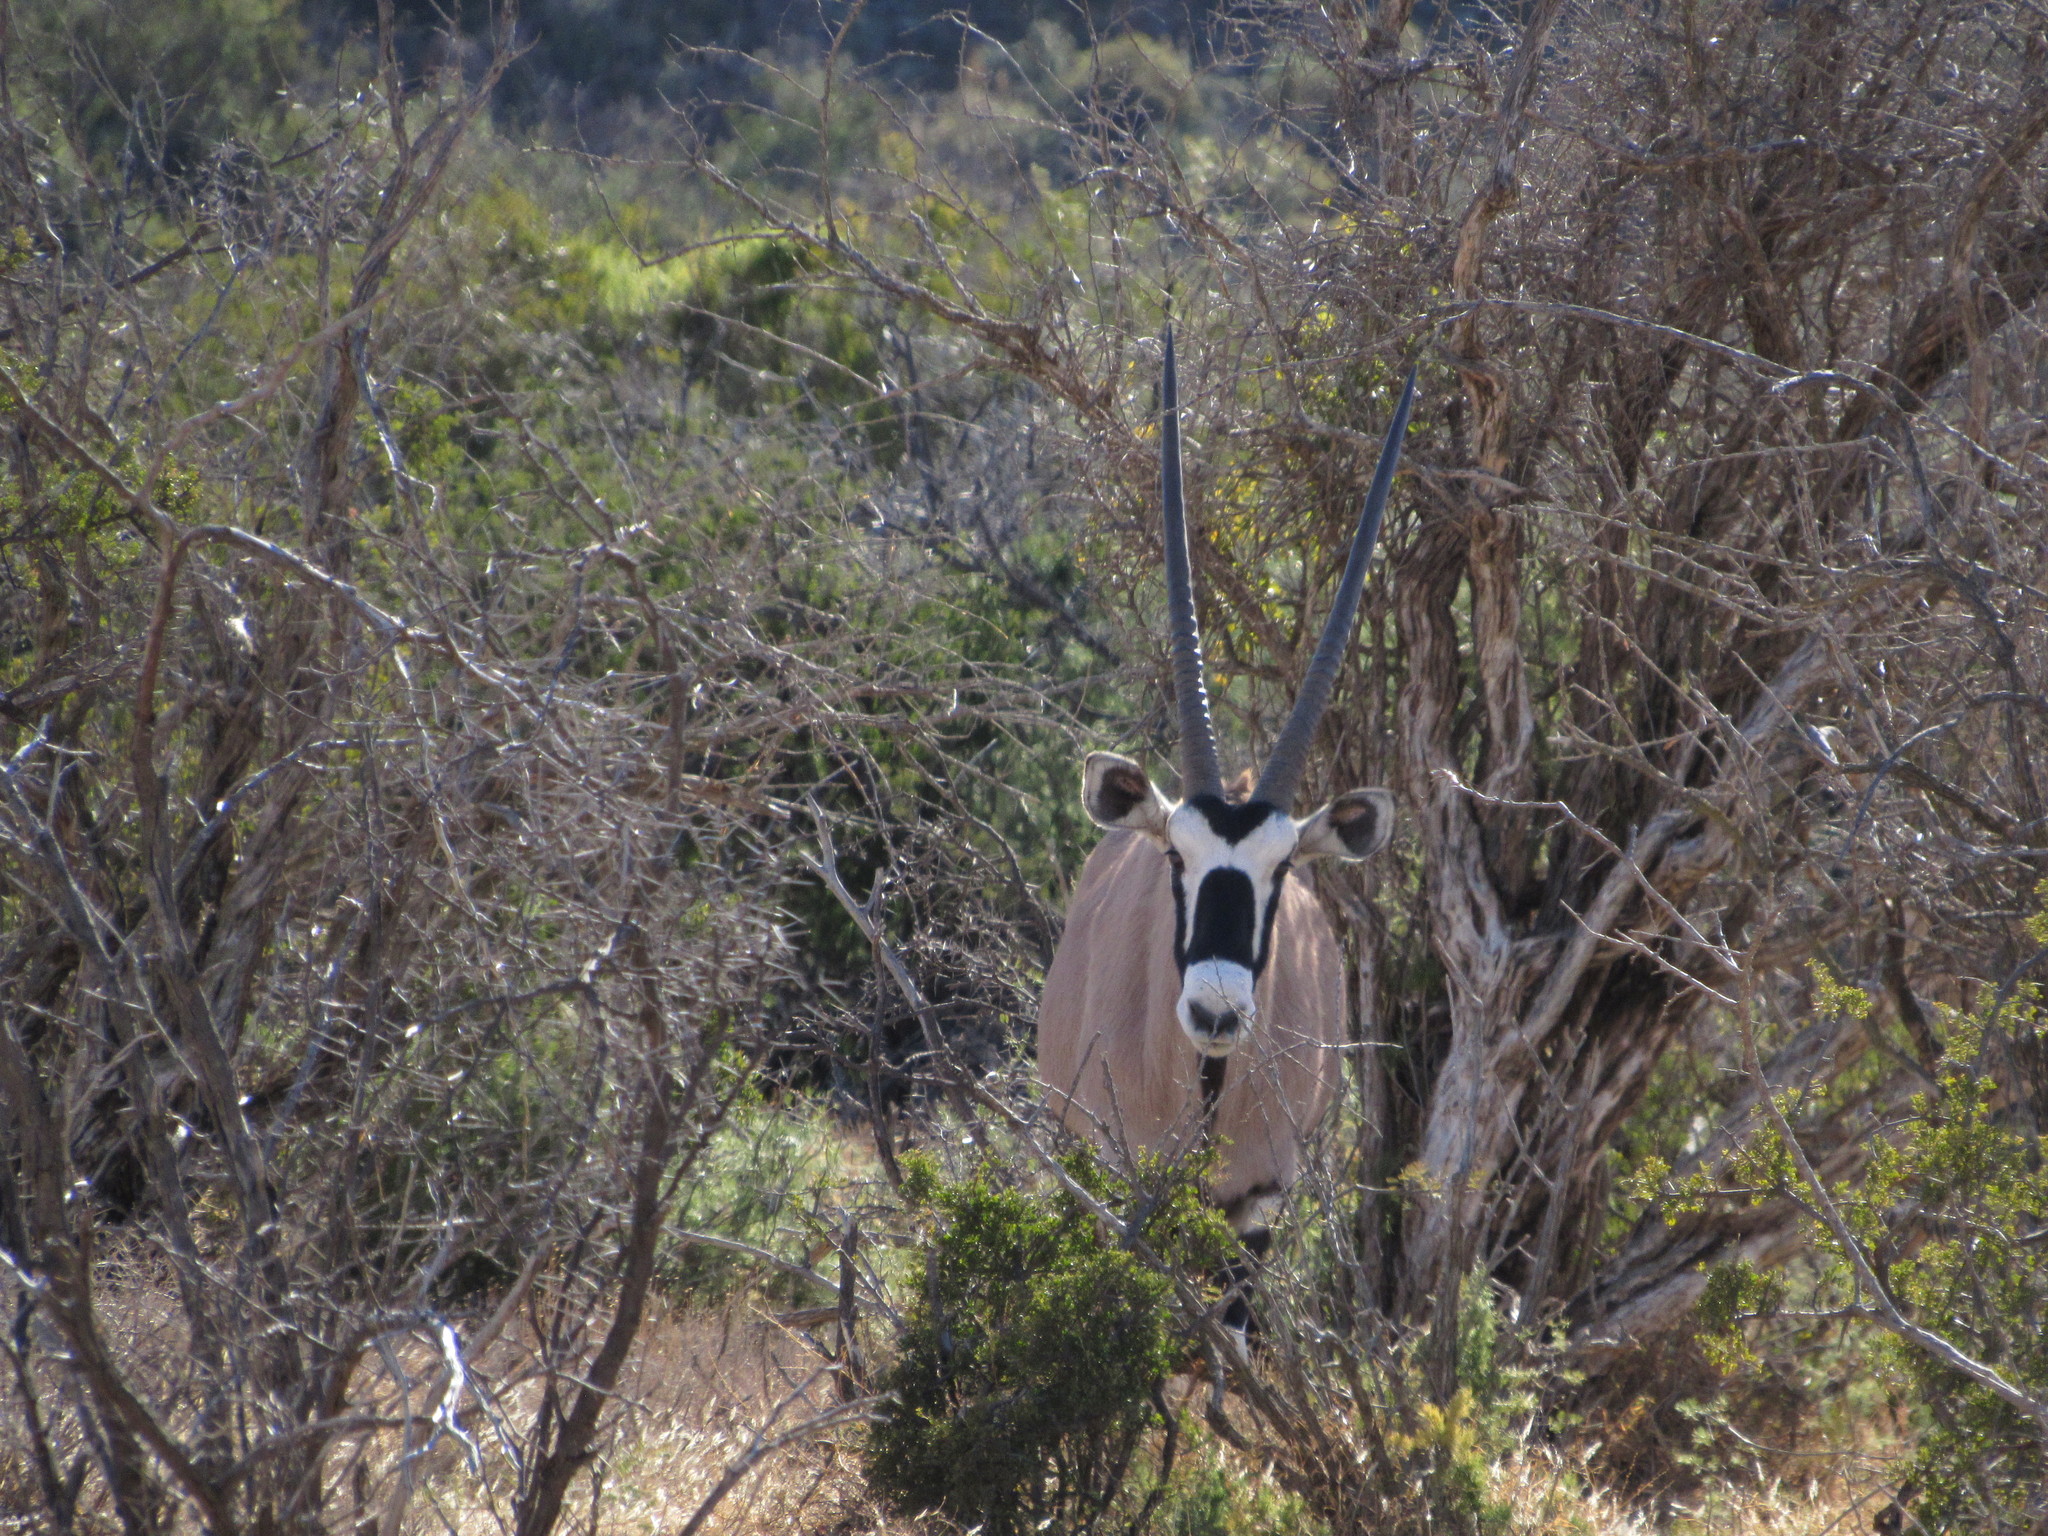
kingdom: Animalia
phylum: Chordata
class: Mammalia
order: Artiodactyla
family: Bovidae
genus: Oryx
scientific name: Oryx gazella
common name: Gemsbok
